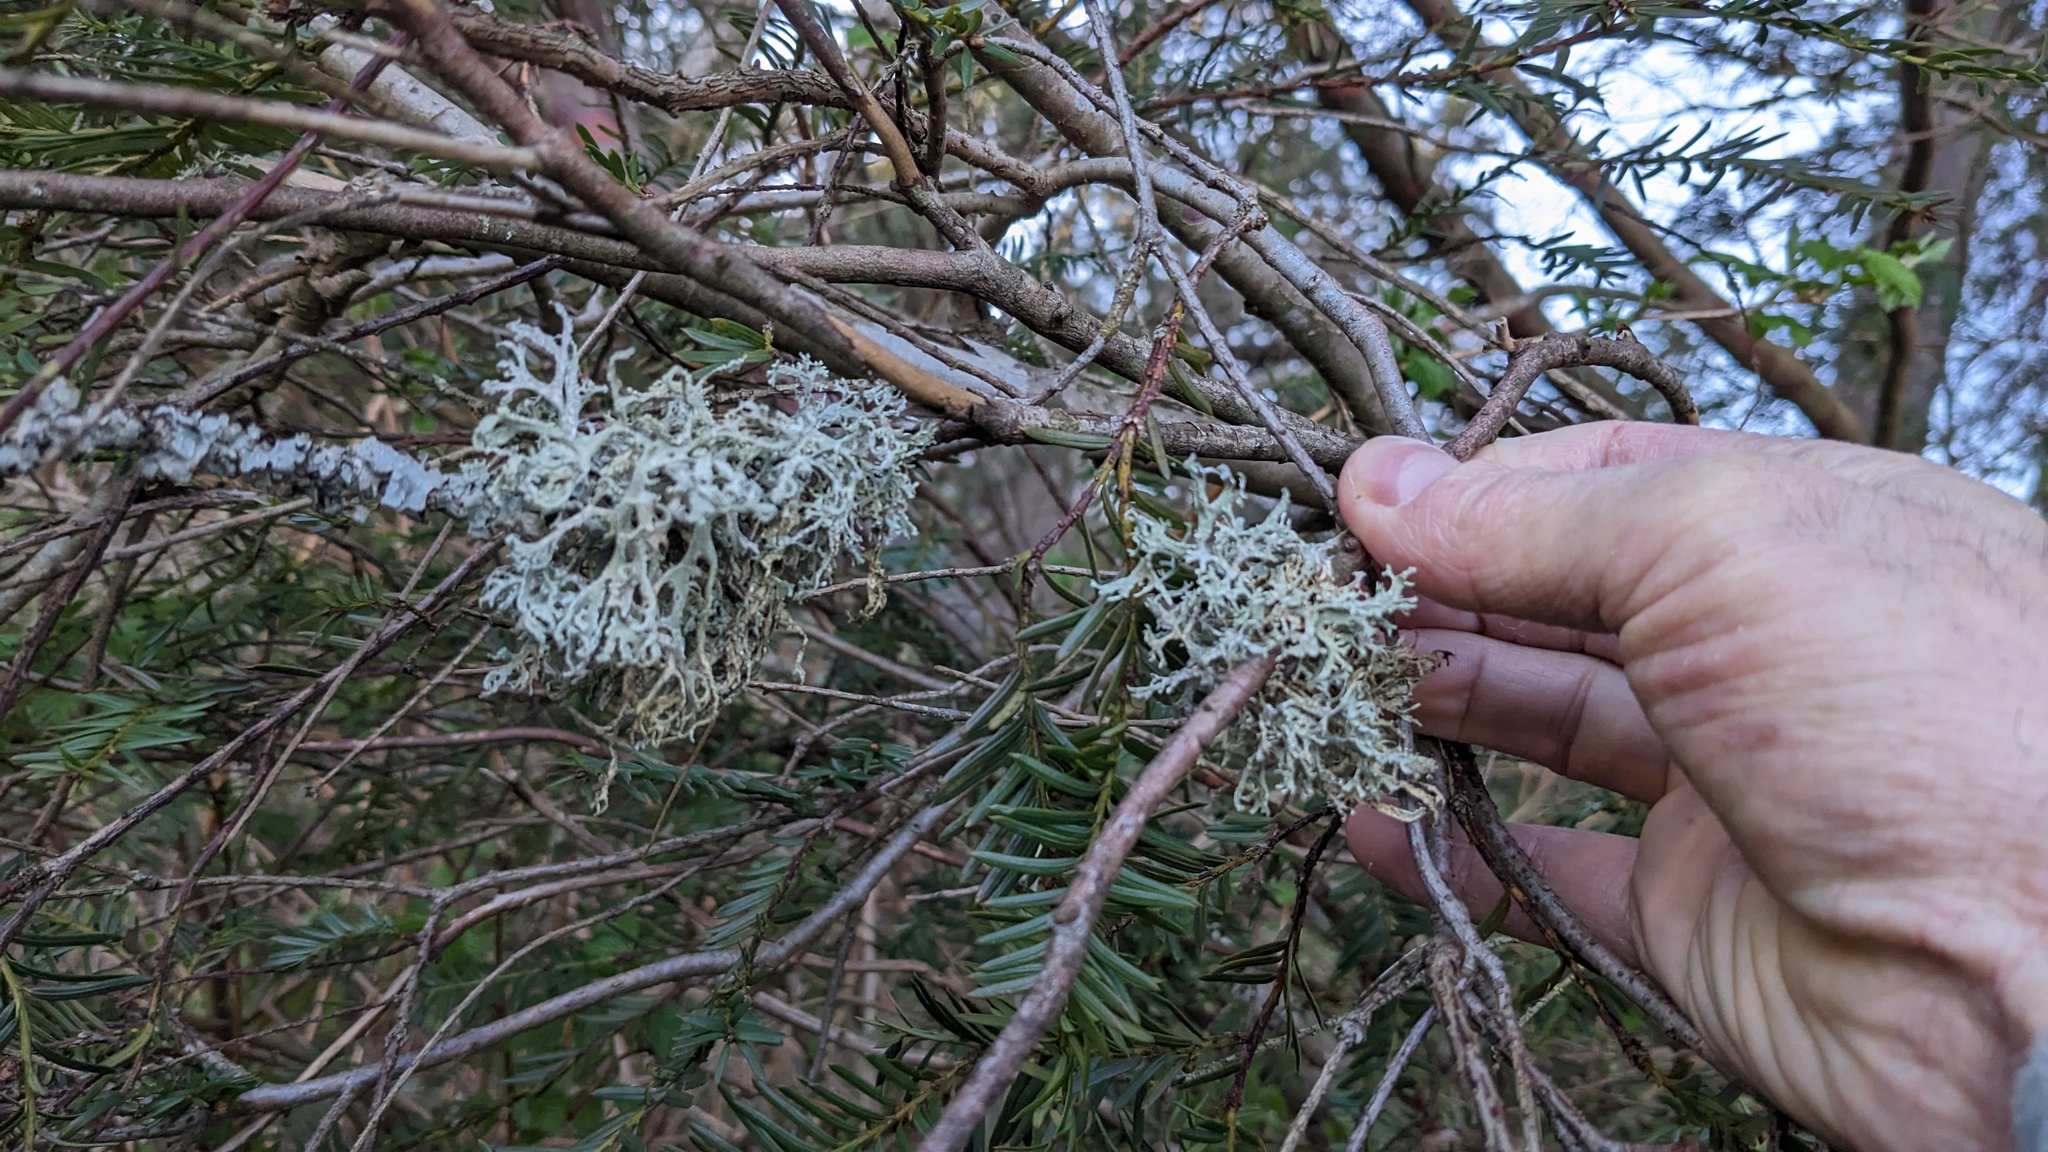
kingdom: Fungi
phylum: Ascomycota
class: Lecanoromycetes
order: Lecanorales
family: Parmeliaceae
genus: Evernia
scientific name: Evernia prunastri
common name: Oak moss
